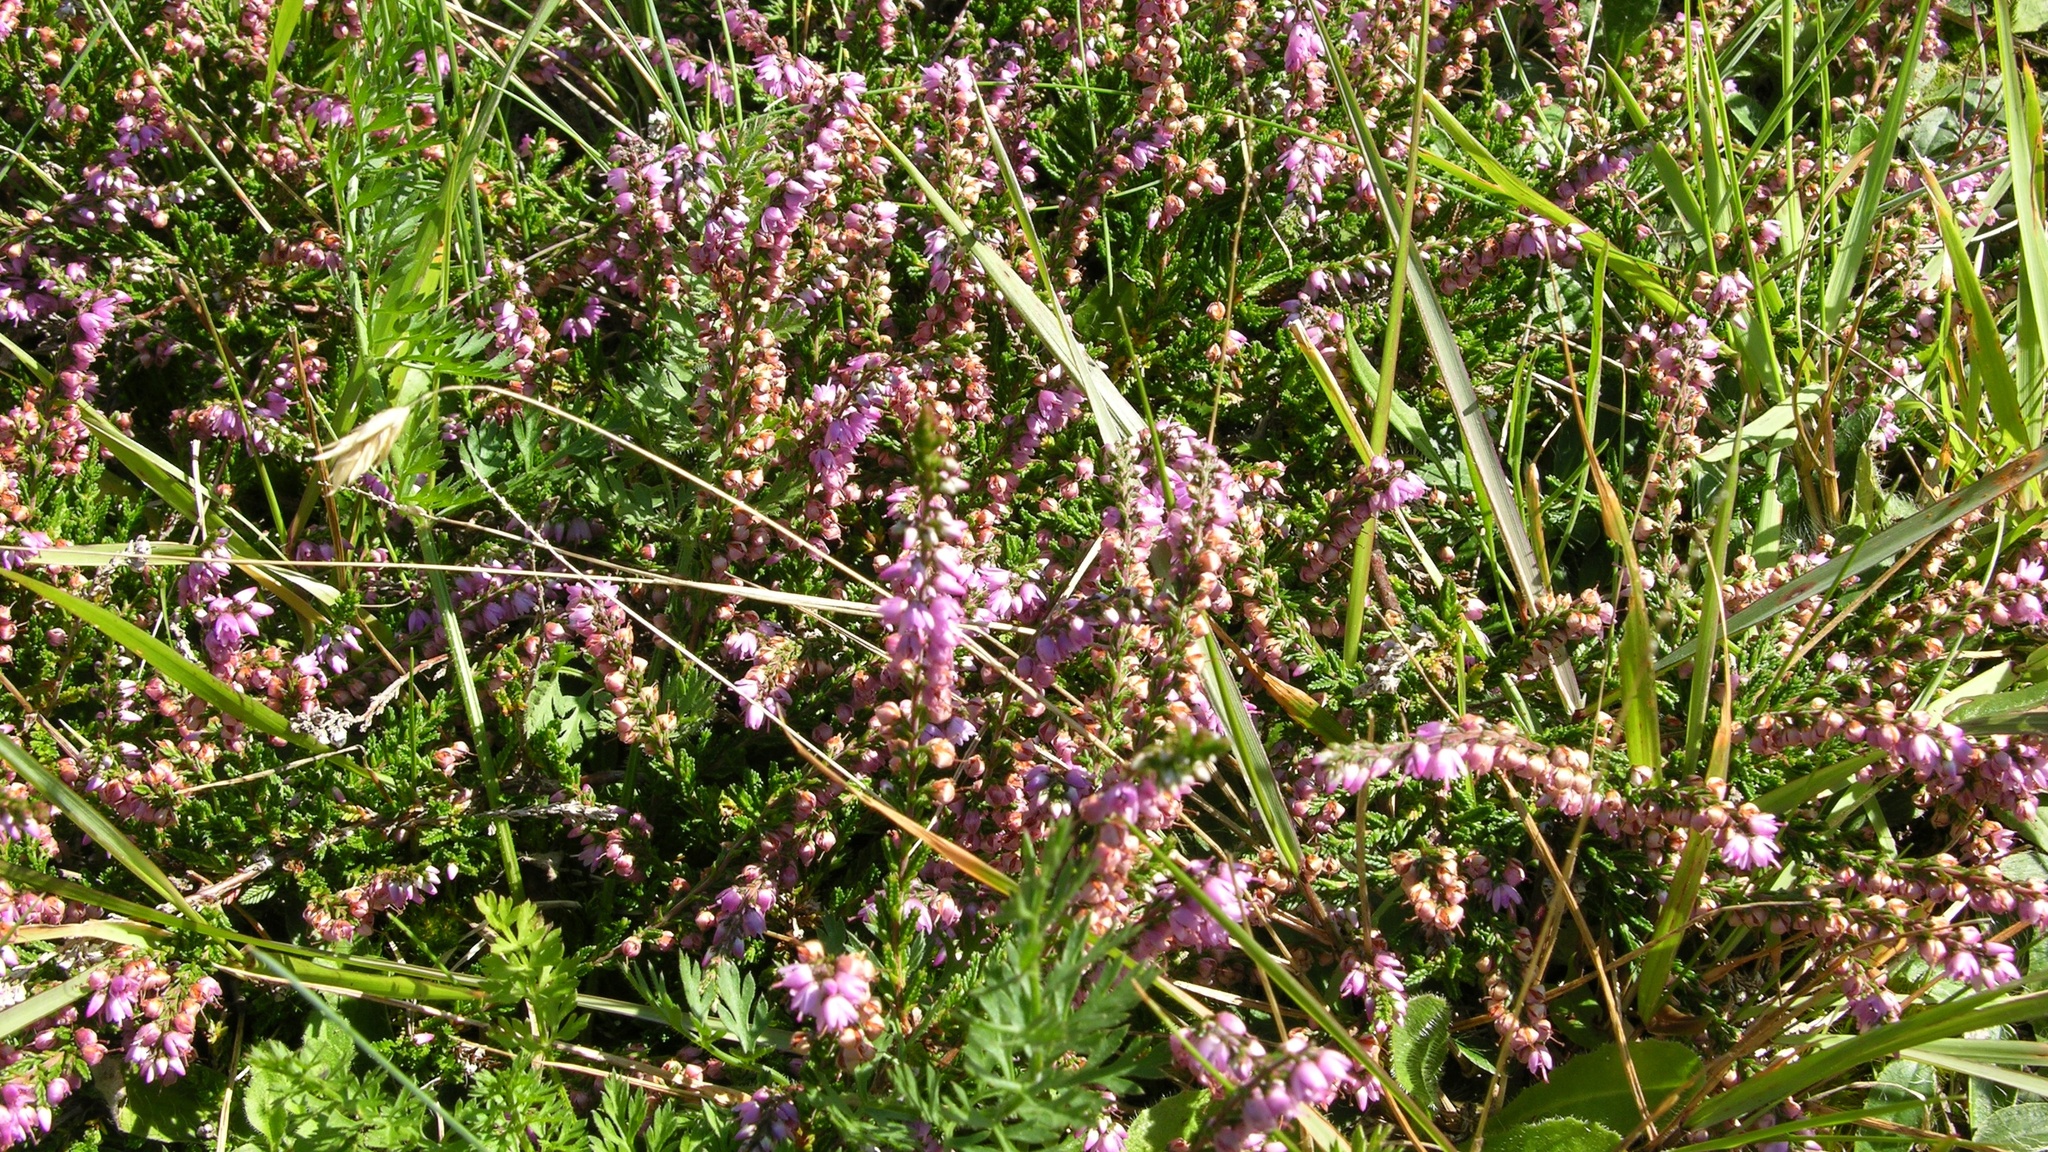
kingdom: Plantae
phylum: Tracheophyta
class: Magnoliopsida
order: Ericales
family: Ericaceae
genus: Calluna
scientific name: Calluna vulgaris
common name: Heather
